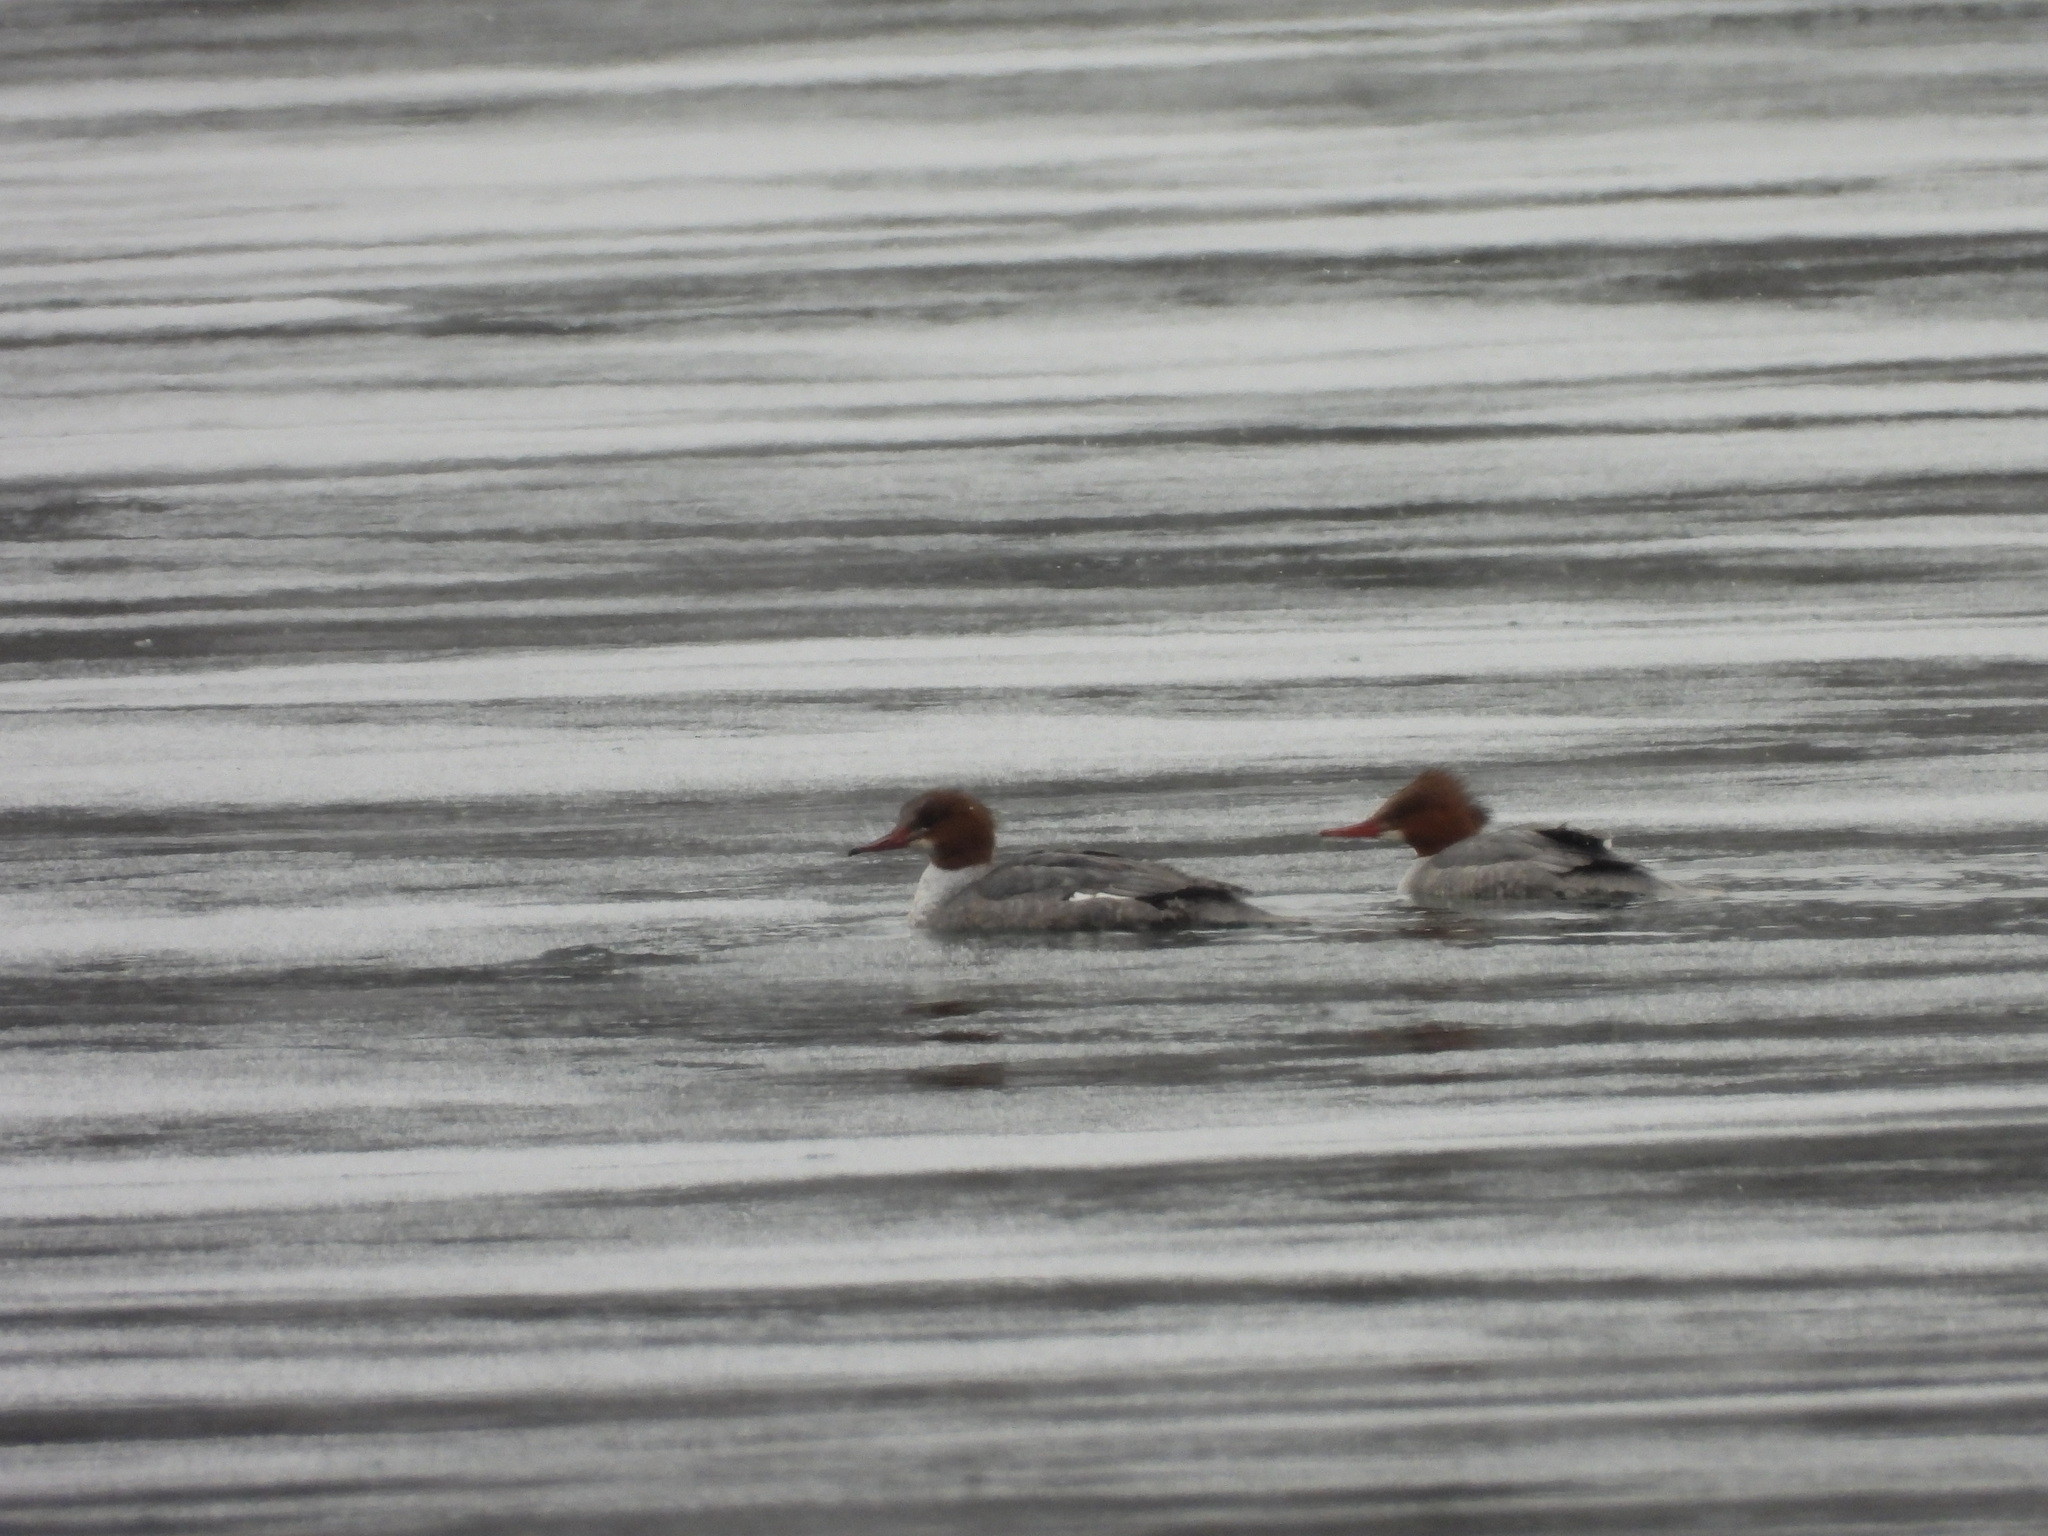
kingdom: Animalia
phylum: Chordata
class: Aves
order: Anseriformes
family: Anatidae
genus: Mergus
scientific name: Mergus merganser
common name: Common merganser
